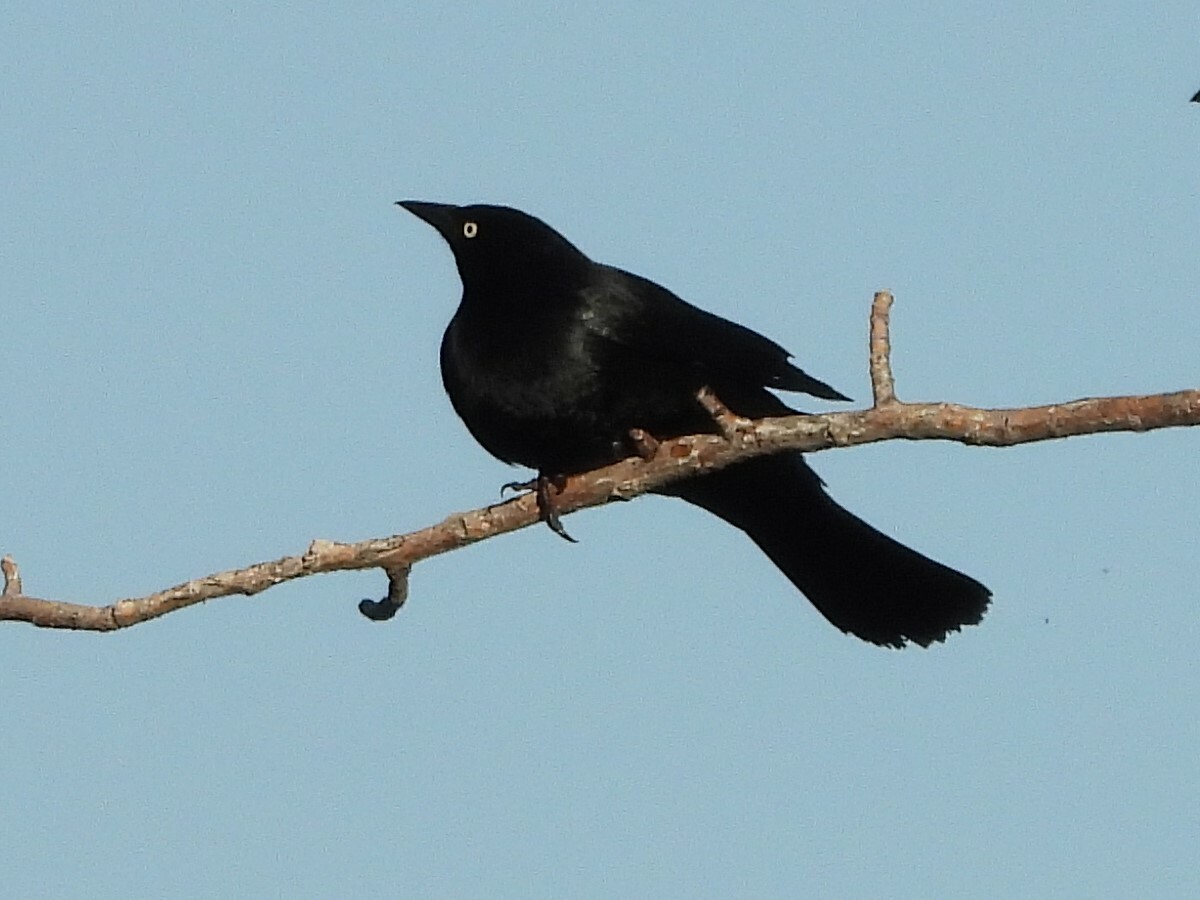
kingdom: Animalia
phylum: Chordata
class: Aves
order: Passeriformes
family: Icteridae
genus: Euphagus
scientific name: Euphagus cyanocephalus
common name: Brewer's blackbird
